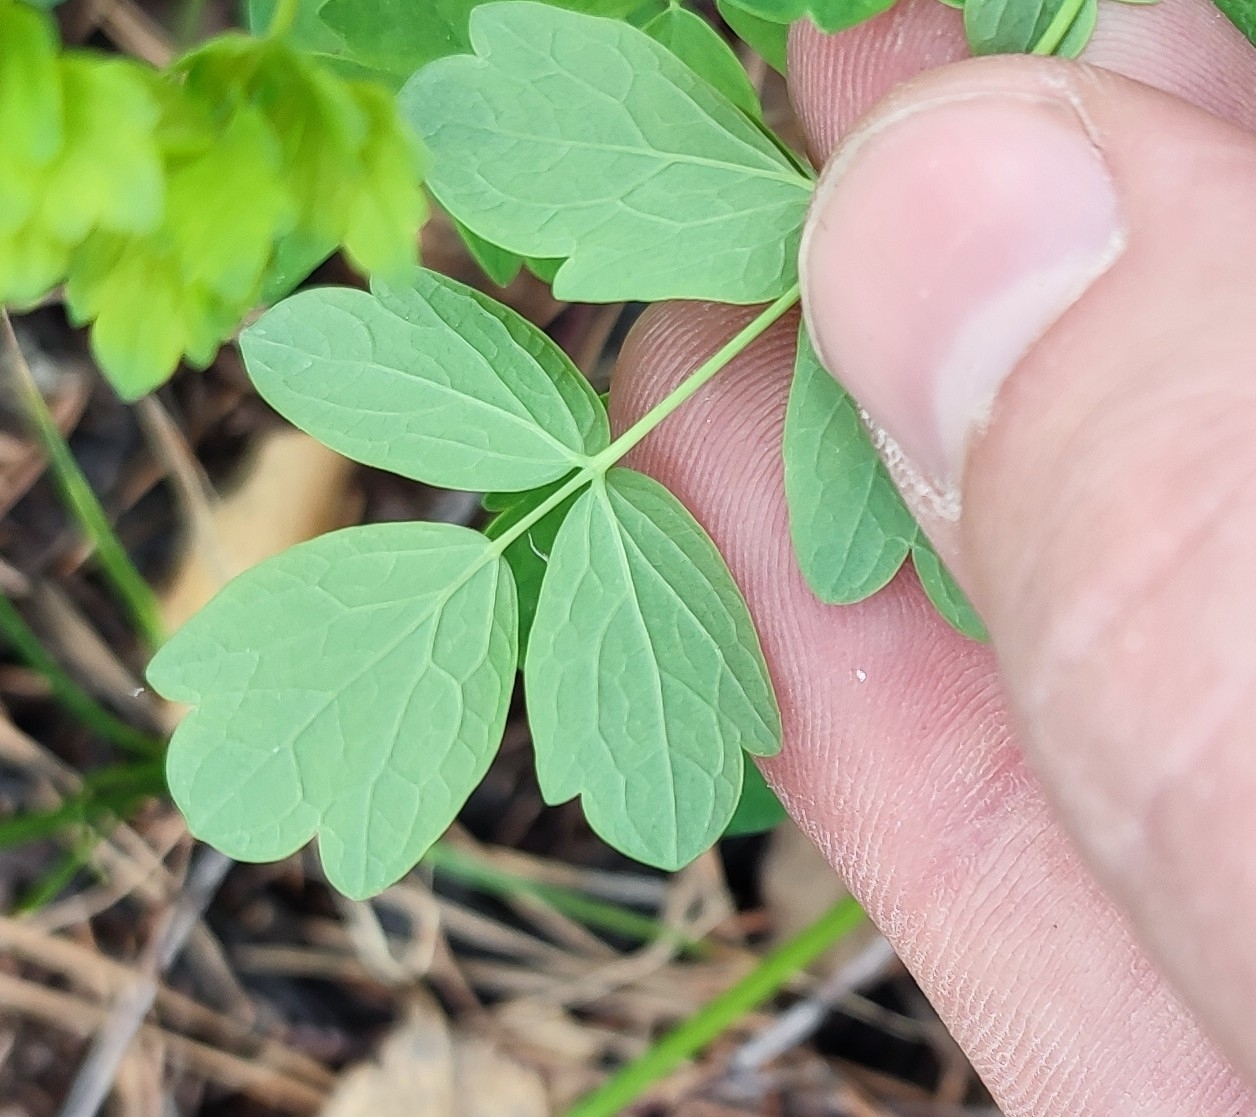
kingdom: Plantae
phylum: Tracheophyta
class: Magnoliopsida
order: Ranunculales
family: Ranunculaceae
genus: Thalictrum
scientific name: Thalictrum minus
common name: Lesser meadow-rue
